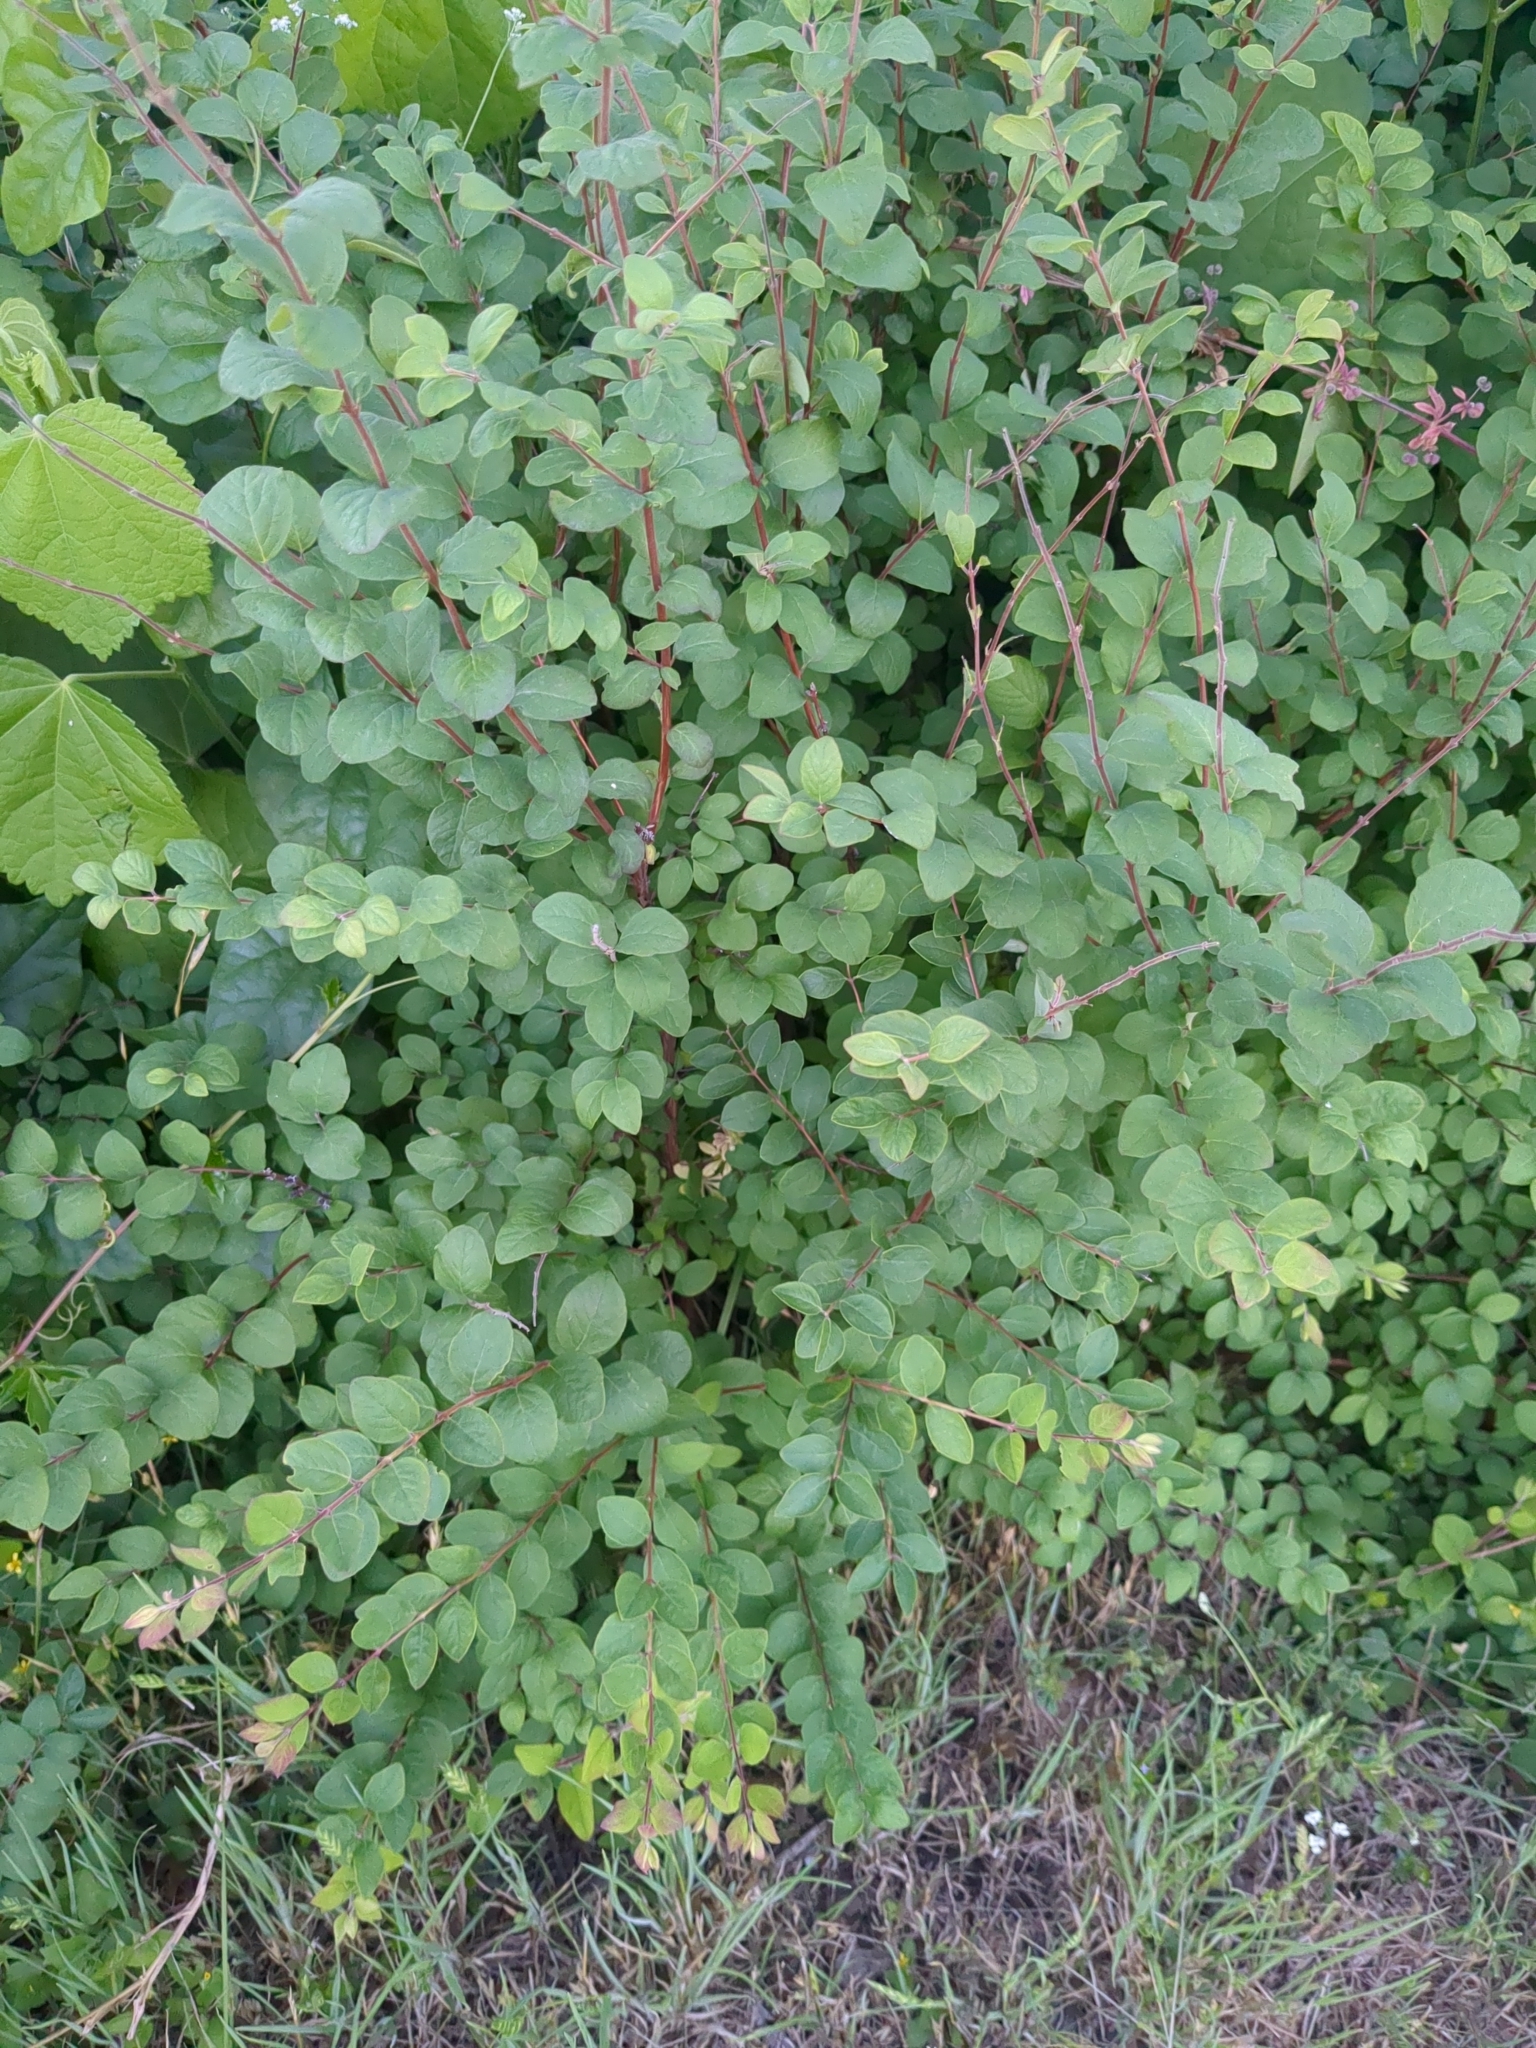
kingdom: Plantae
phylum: Tracheophyta
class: Magnoliopsida
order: Dipsacales
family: Caprifoliaceae
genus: Symphoricarpos
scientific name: Symphoricarpos orbiculatus
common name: Coralberry
